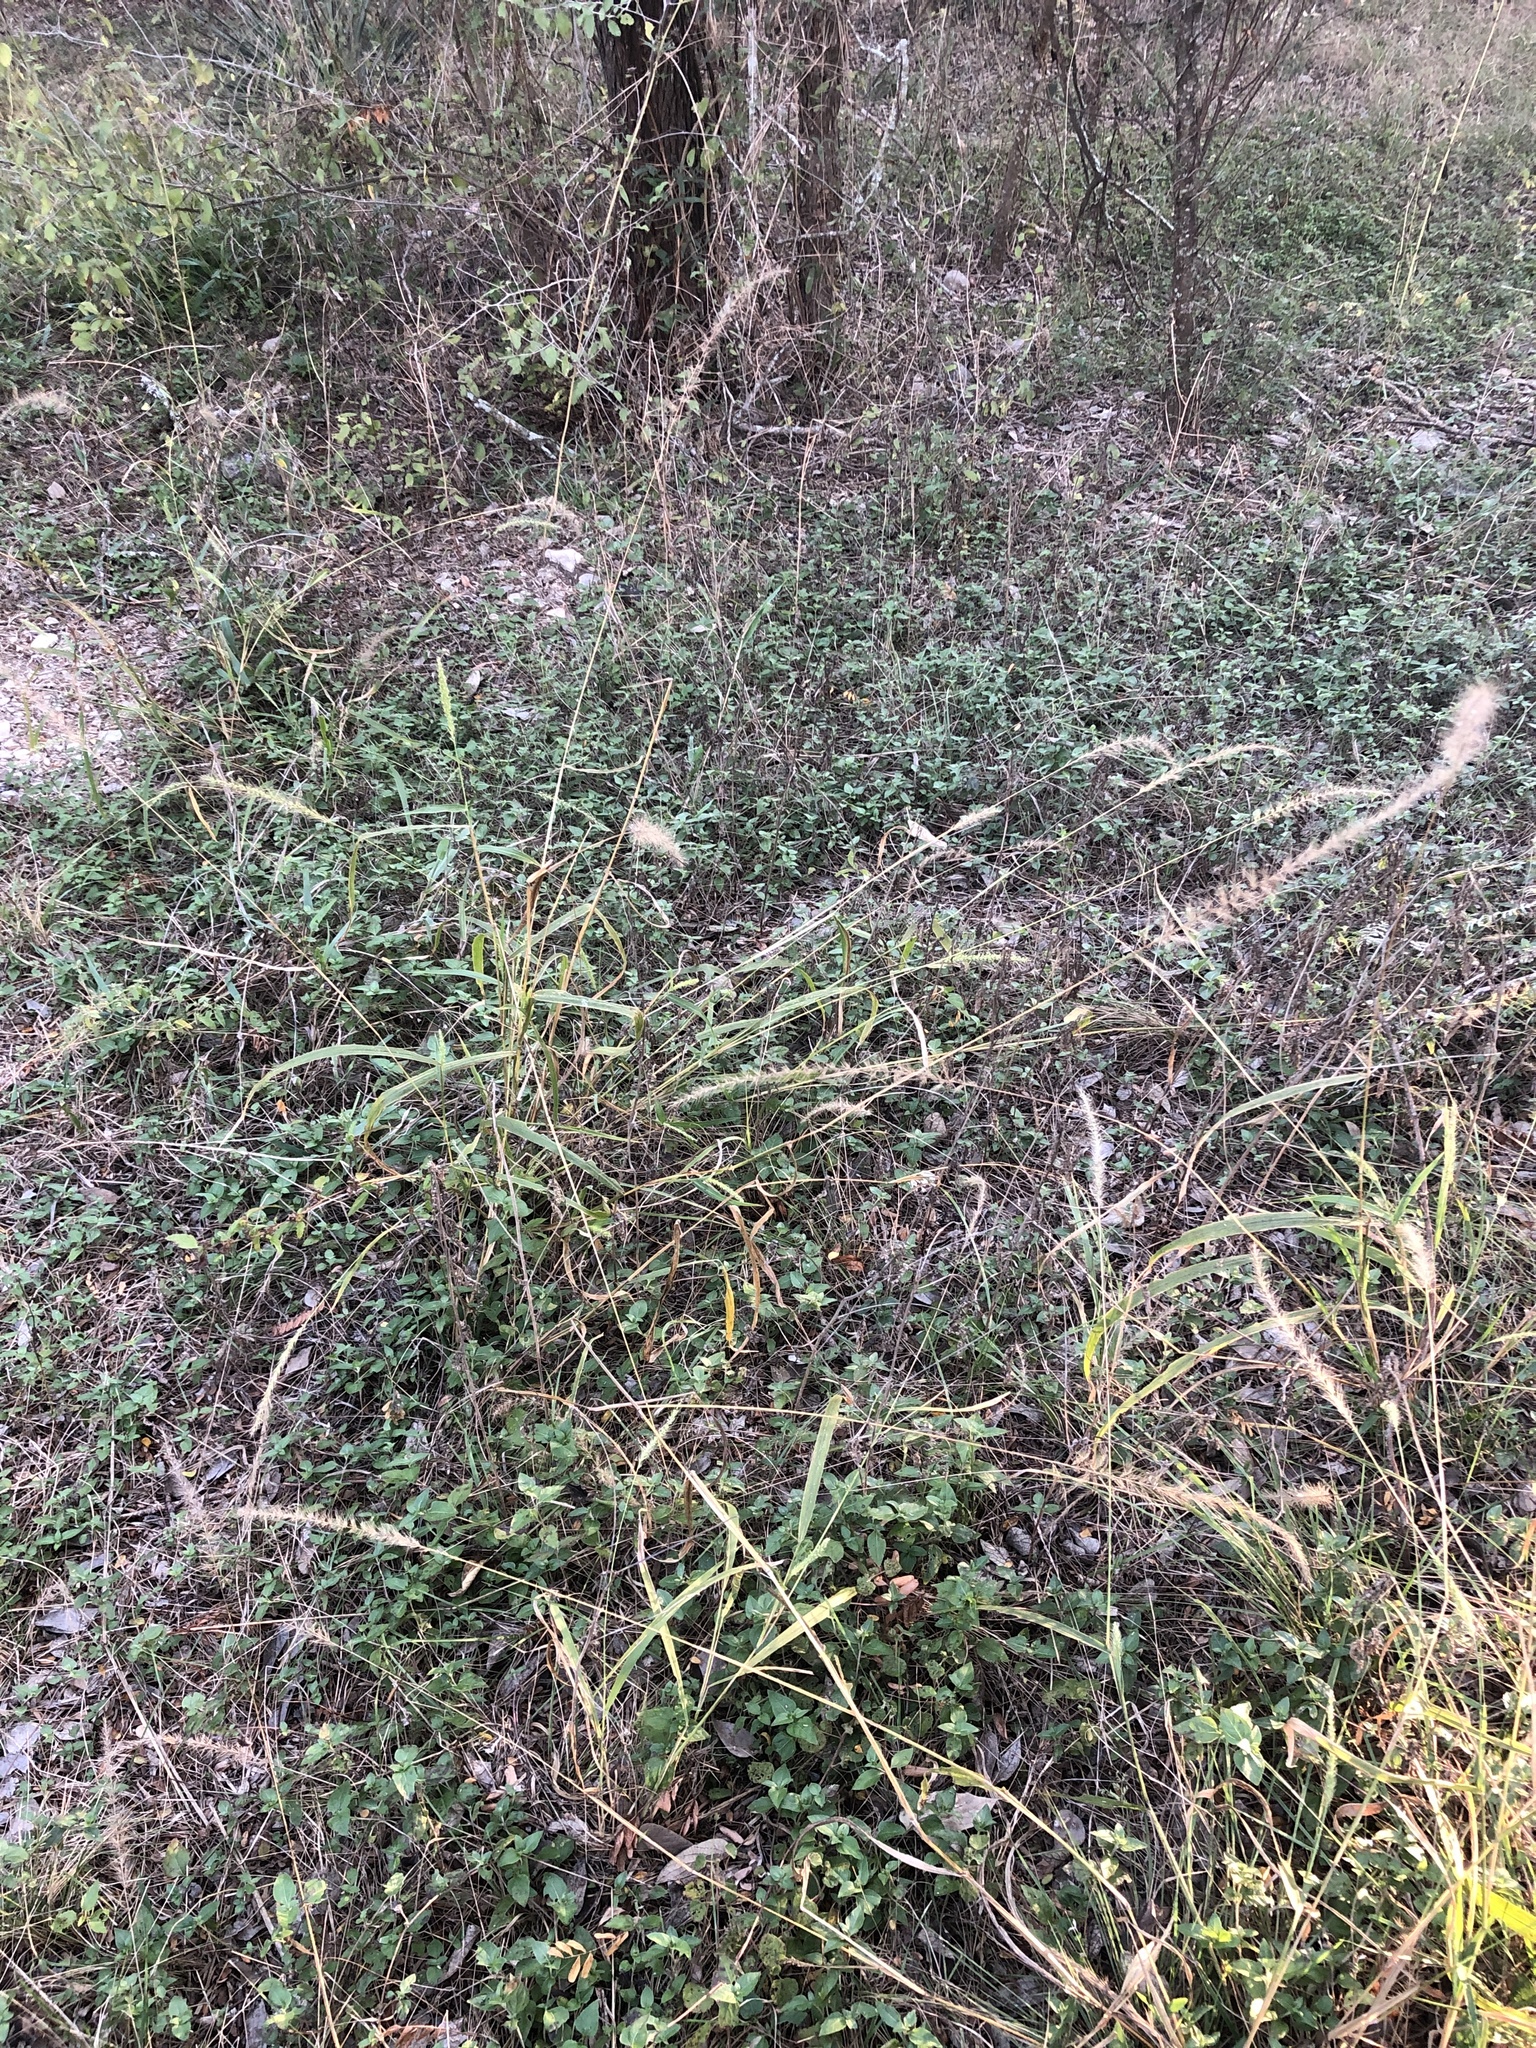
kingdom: Plantae
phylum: Tracheophyta
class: Liliopsida
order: Poales
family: Poaceae
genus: Setaria
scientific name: Setaria scheelei
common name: Southwestern bristle grass
